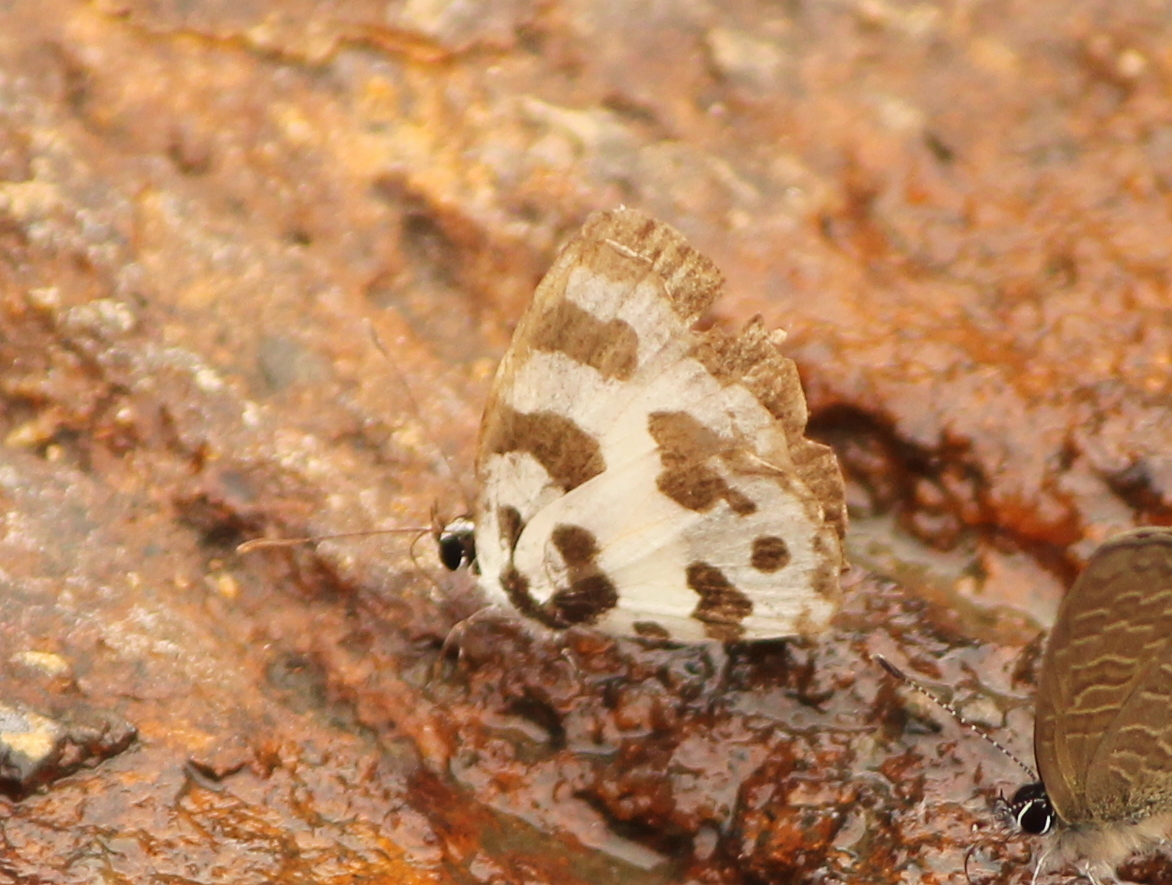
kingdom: Animalia
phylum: Arthropoda
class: Insecta
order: Lepidoptera
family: Lycaenidae
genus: Caleta
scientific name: Caleta decidia
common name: Angled pierrot
